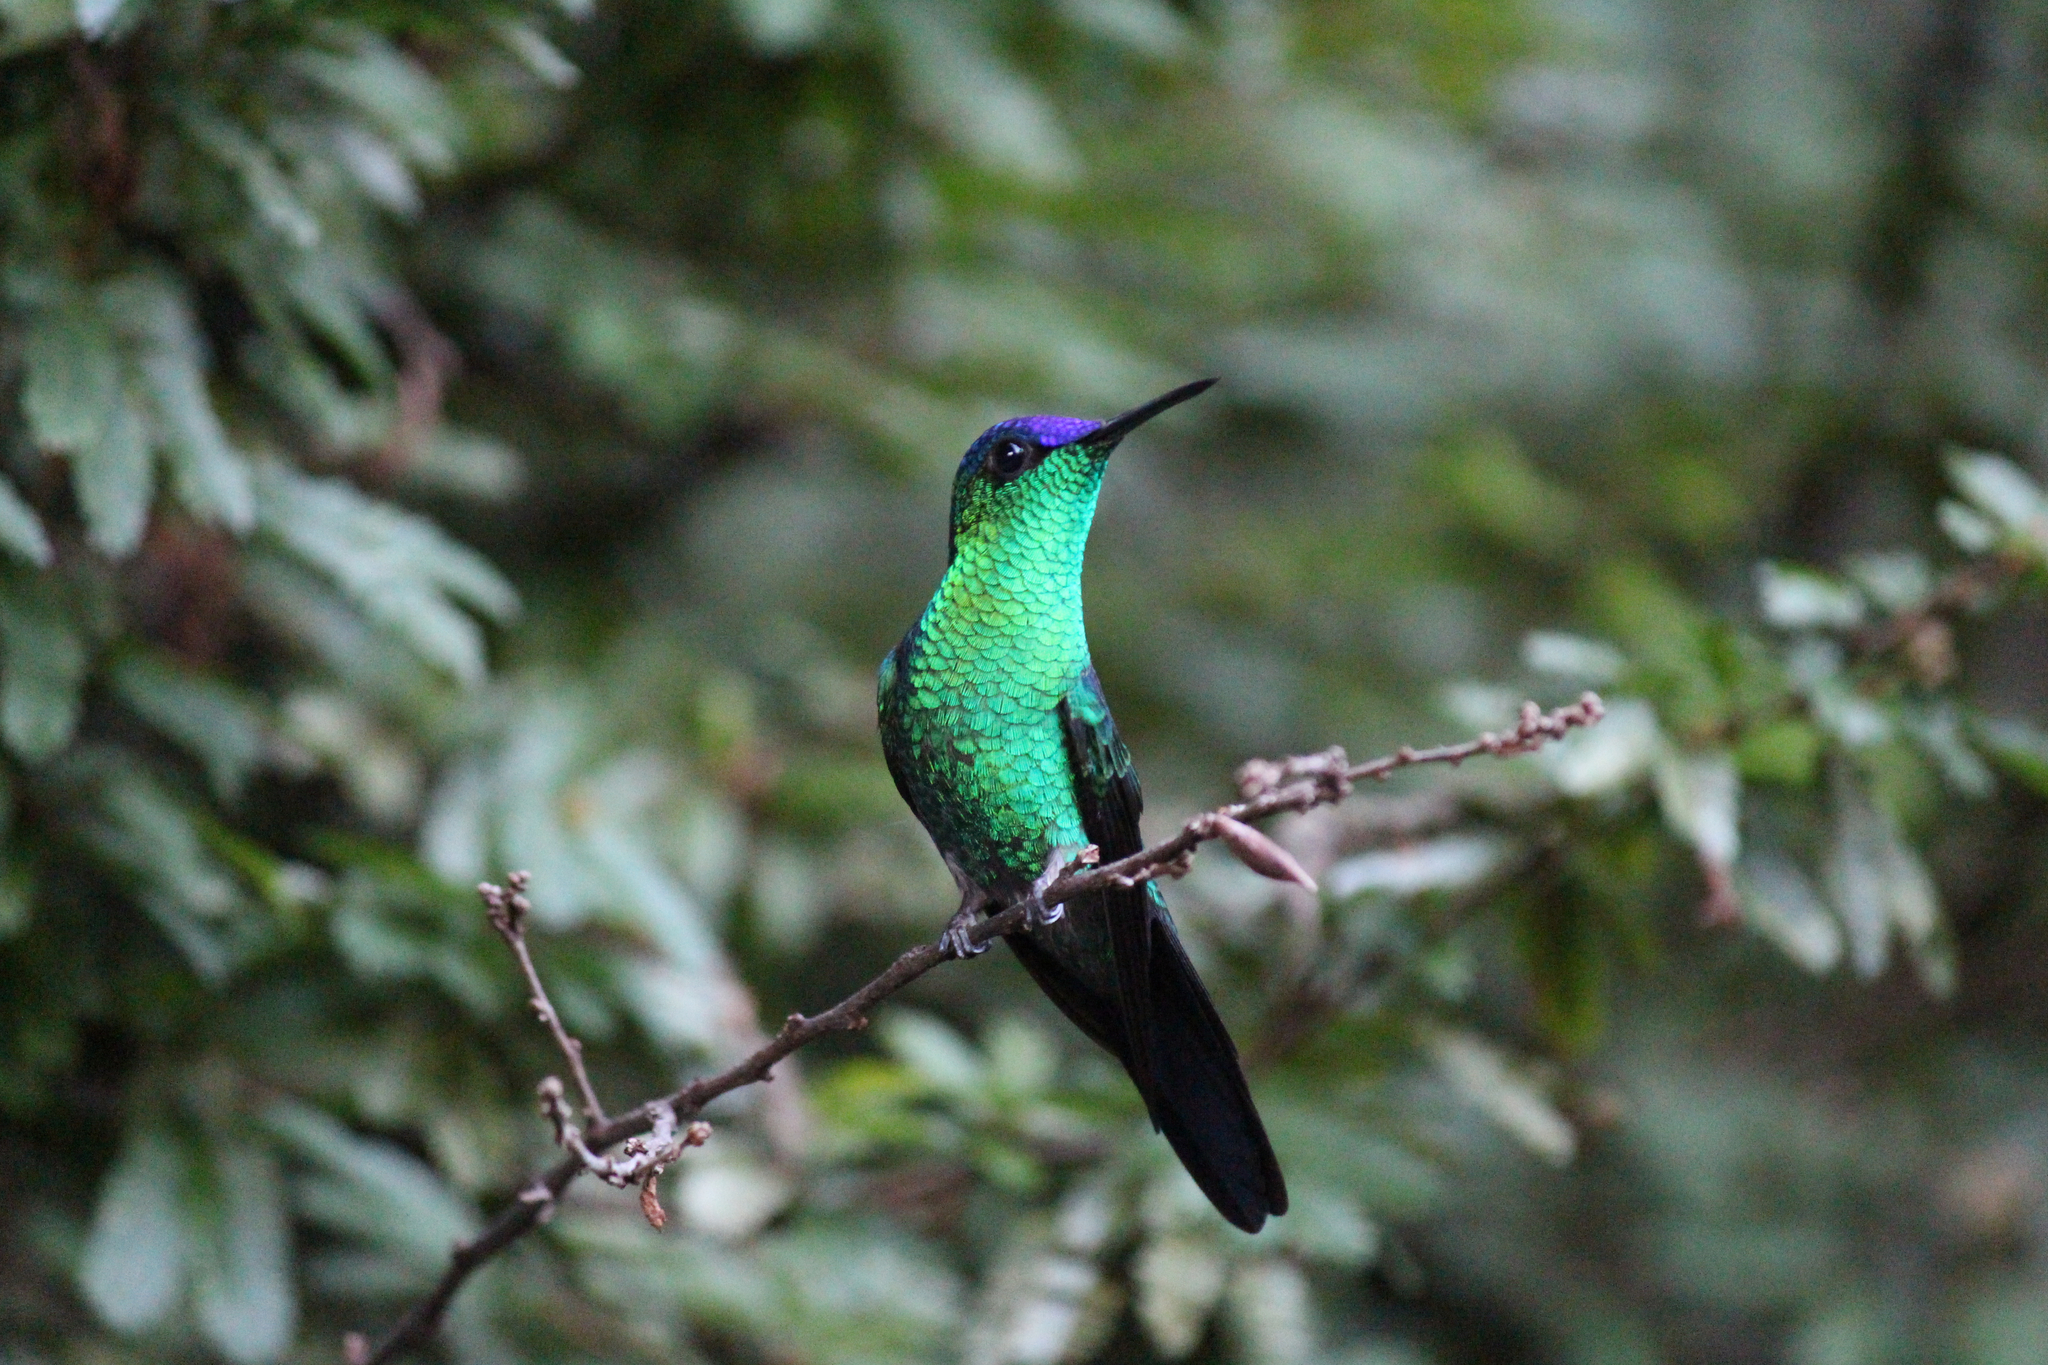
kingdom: Animalia
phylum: Chordata
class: Aves
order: Apodiformes
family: Trochilidae
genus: Thalurania
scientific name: Thalurania glaucopis
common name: Violet-capped woodnymph
